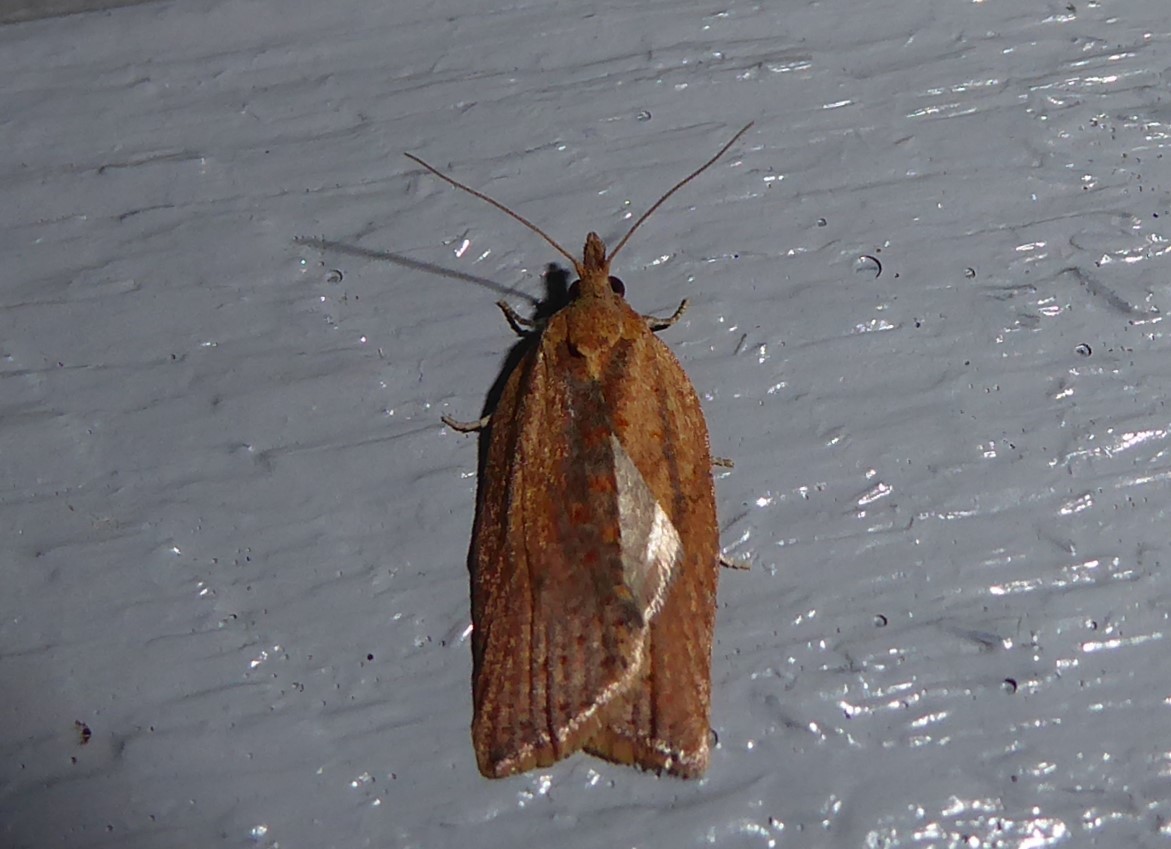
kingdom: Animalia
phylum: Arthropoda
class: Insecta
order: Lepidoptera
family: Tortricidae
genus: Epiphyas
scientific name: Epiphyas postvittana
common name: Light brown apple moth
